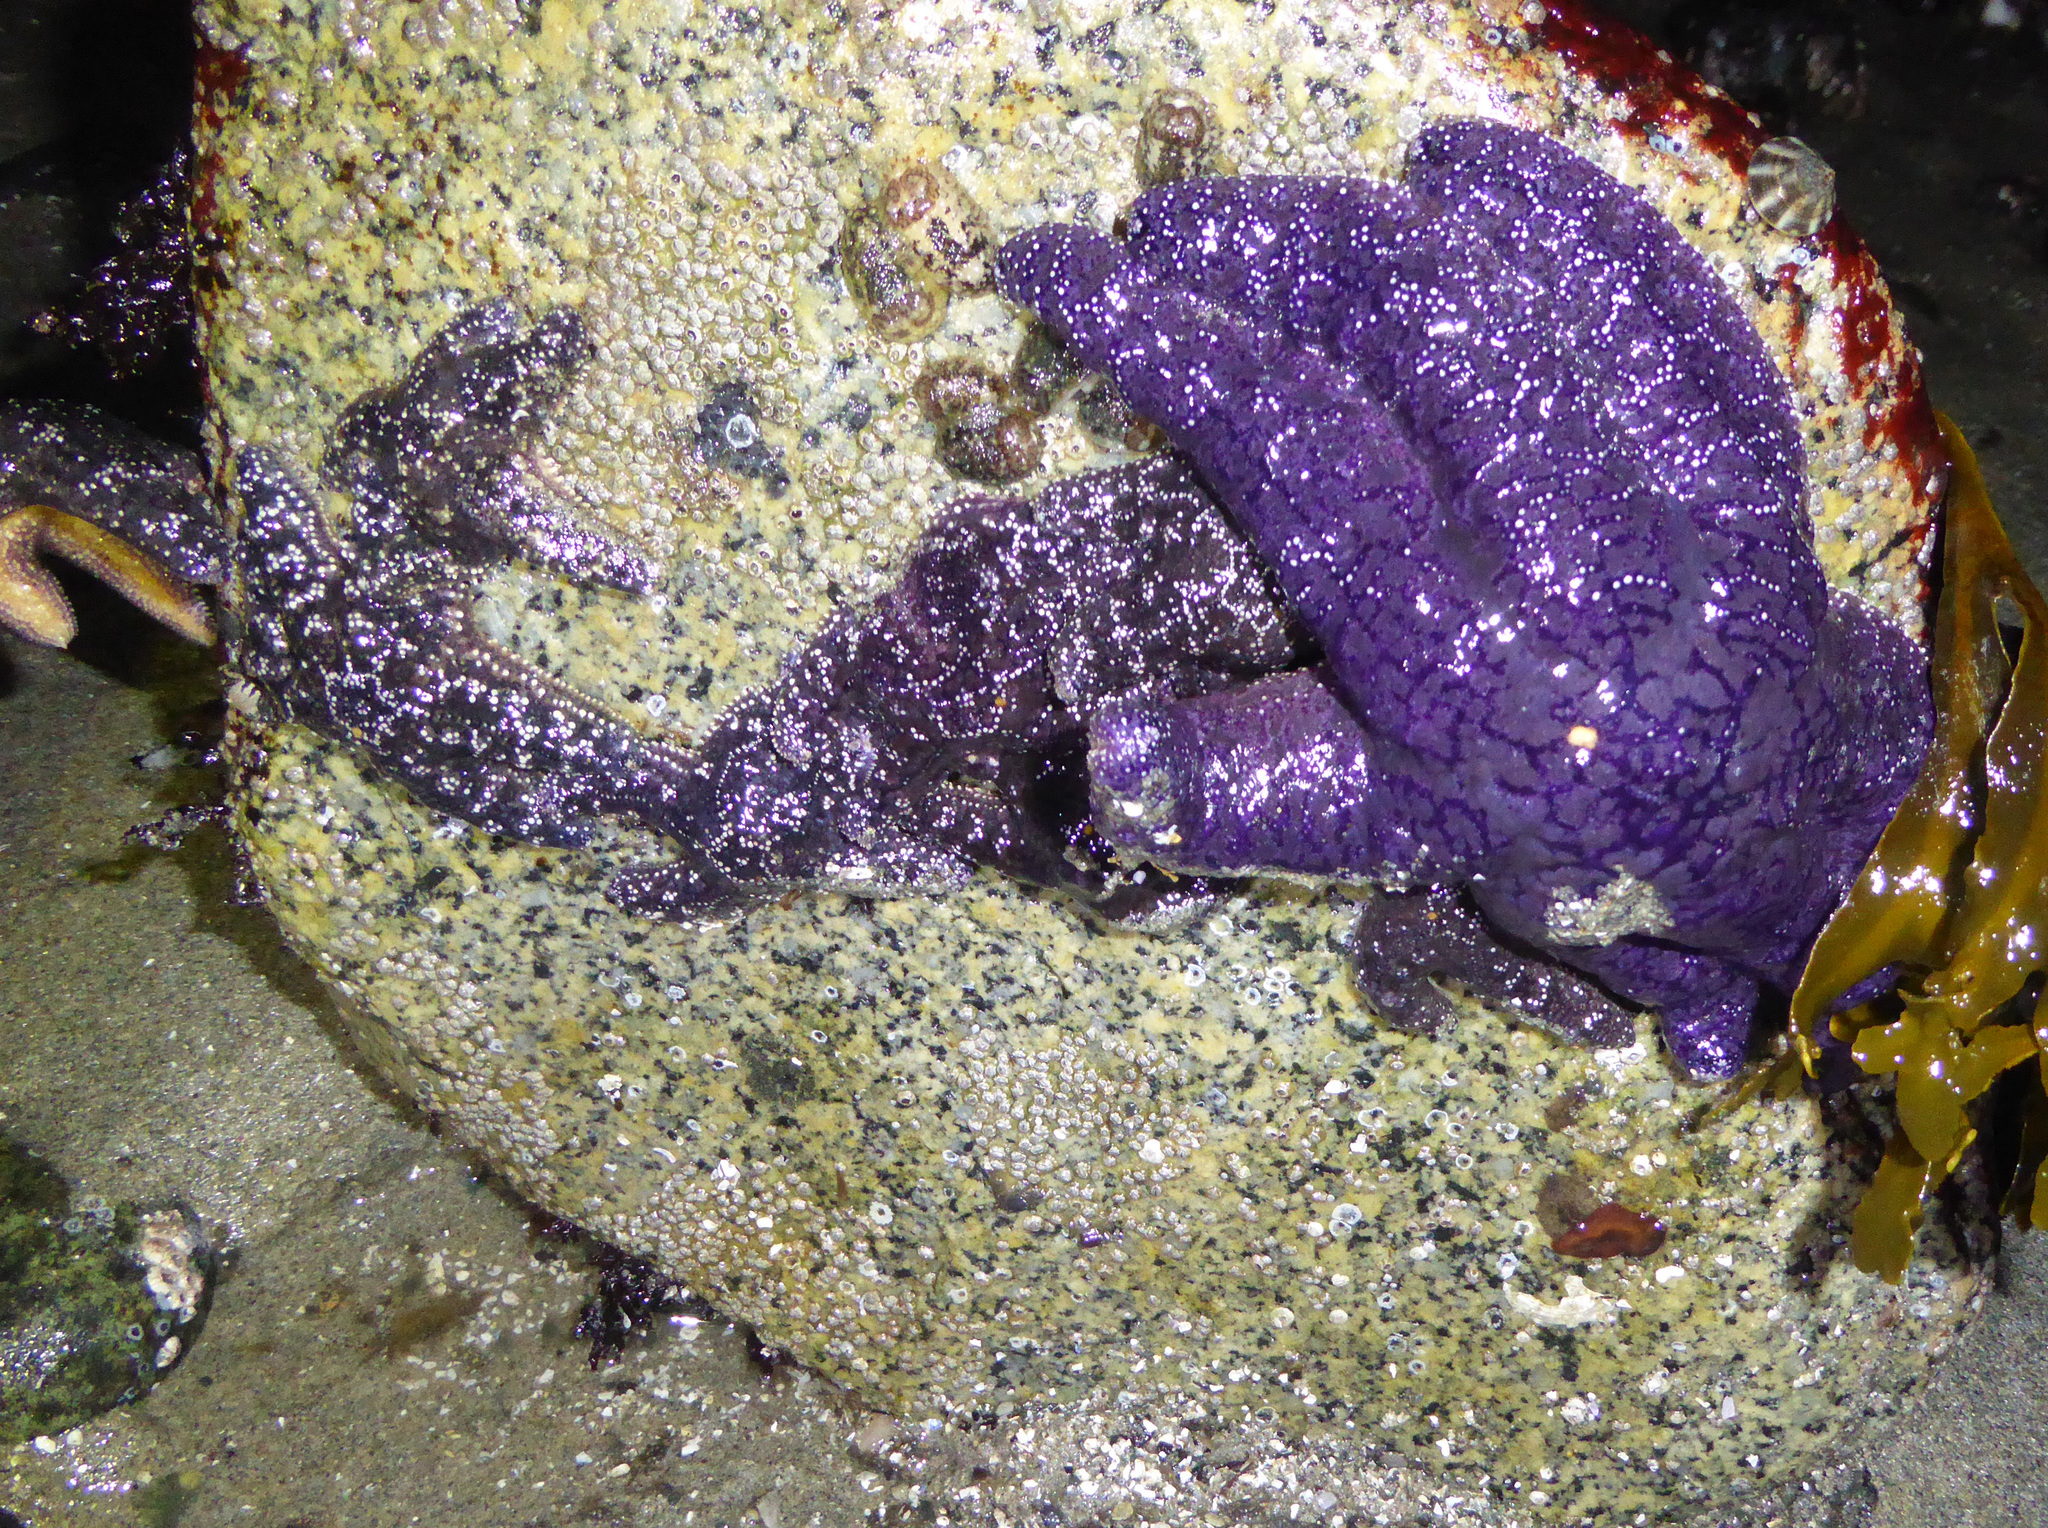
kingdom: Animalia
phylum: Echinodermata
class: Asteroidea
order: Forcipulatida
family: Asteriidae
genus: Pisaster
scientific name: Pisaster ochraceus
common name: Ochre stars
